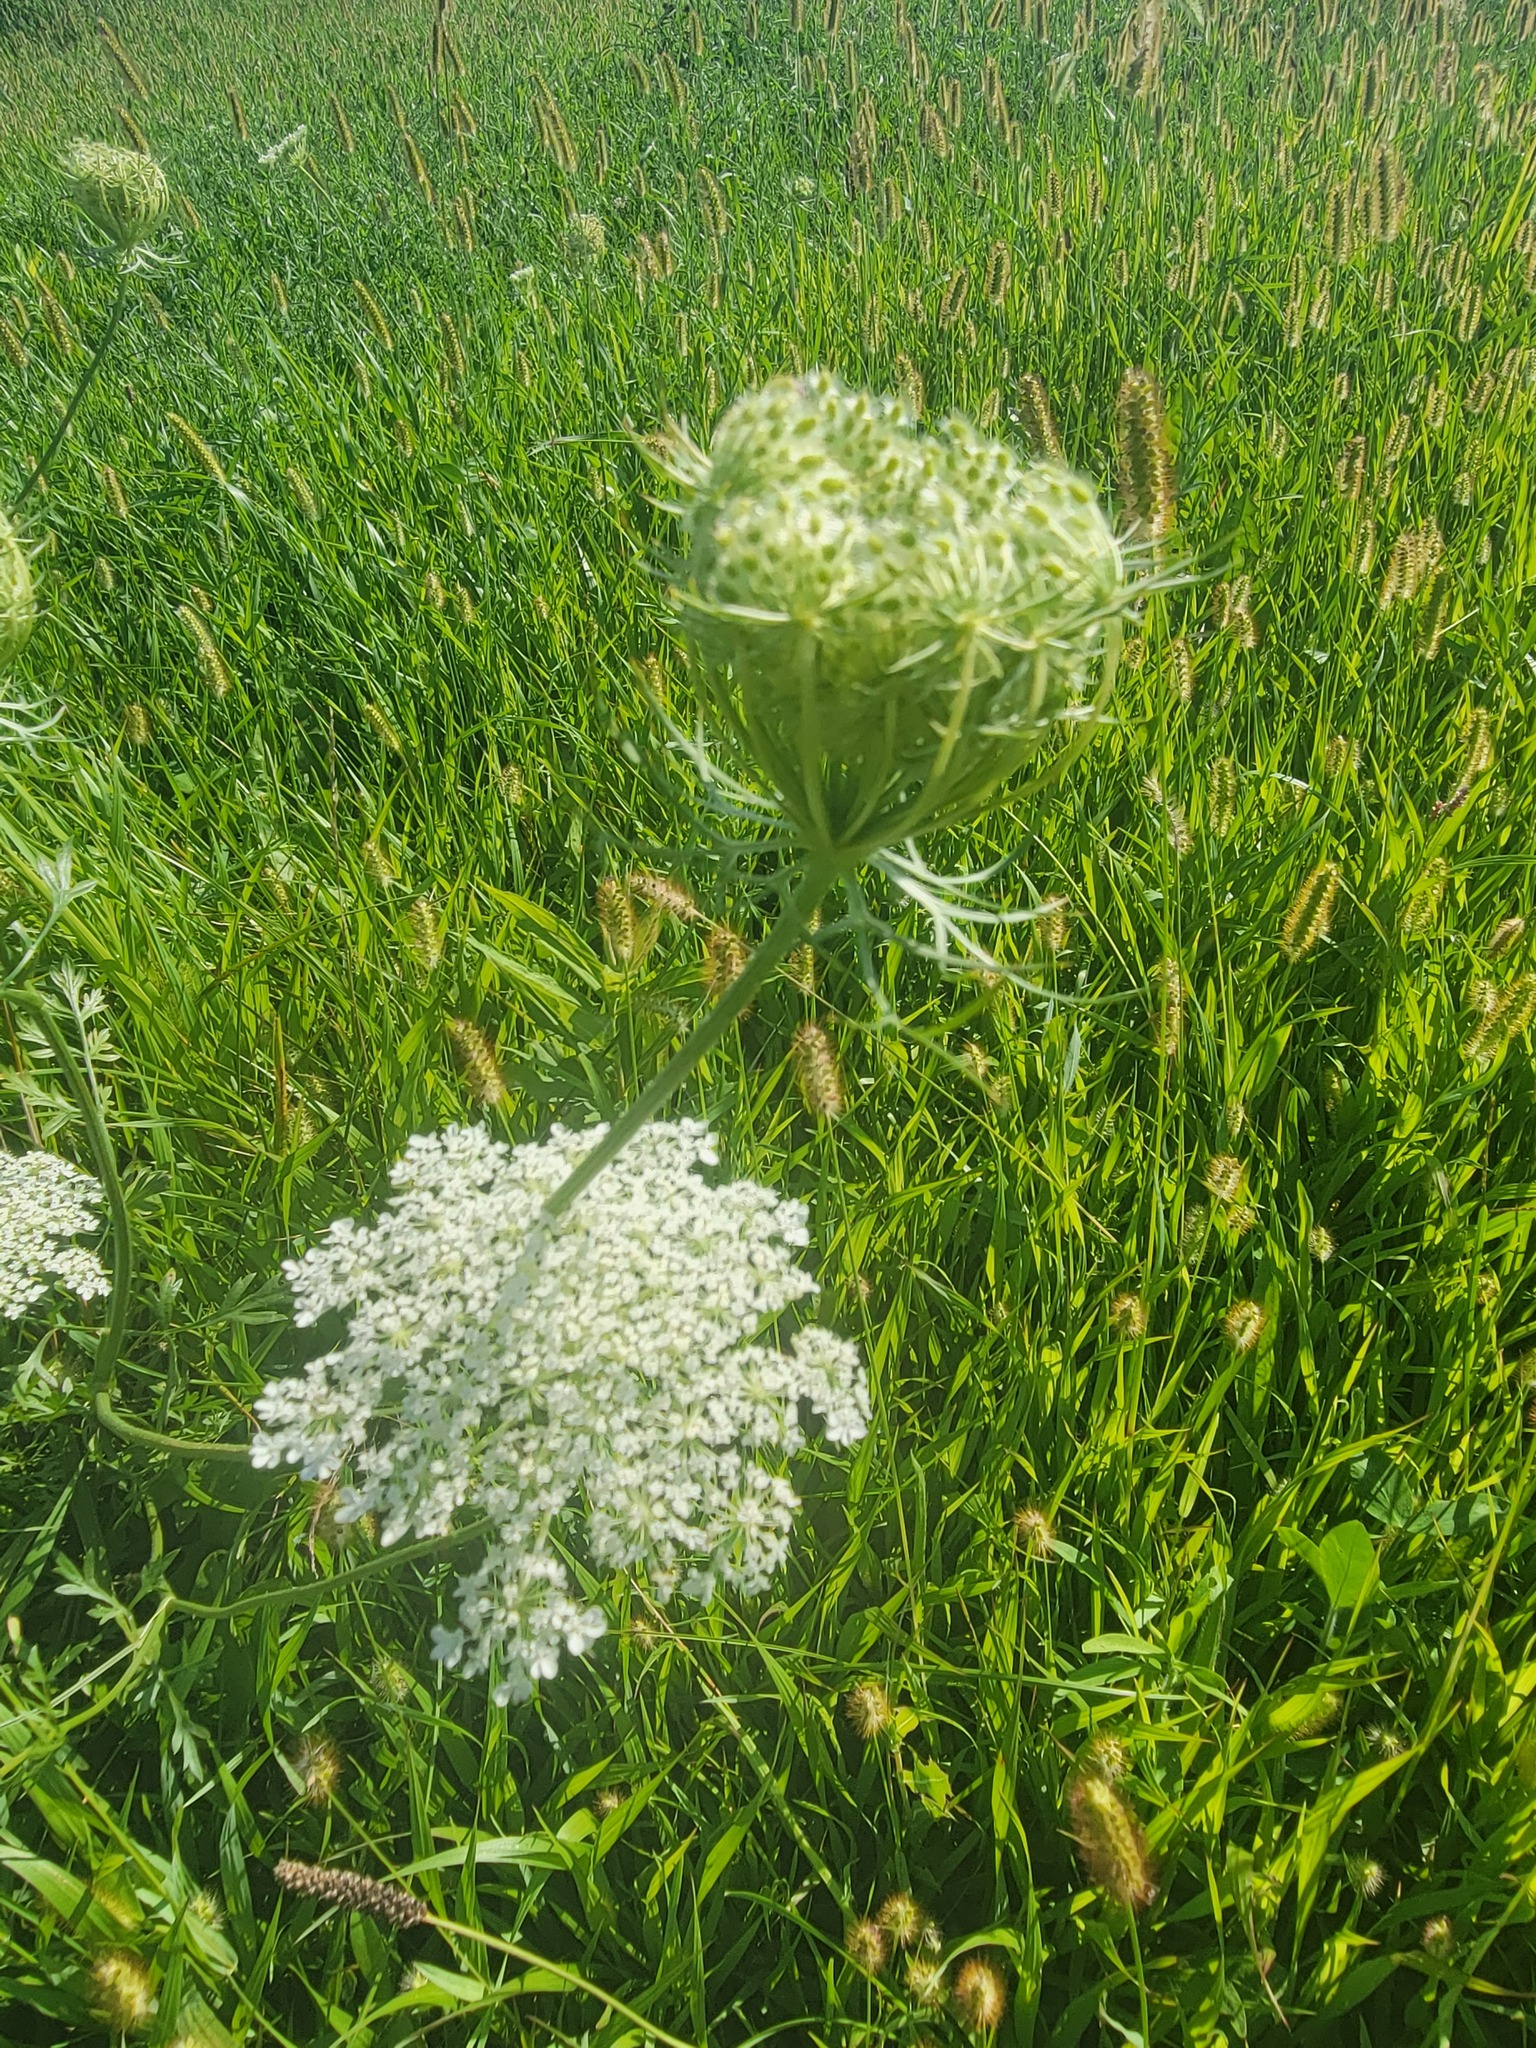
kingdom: Plantae
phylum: Tracheophyta
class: Magnoliopsida
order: Apiales
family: Apiaceae
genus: Daucus
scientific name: Daucus carota
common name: Wild carrot
